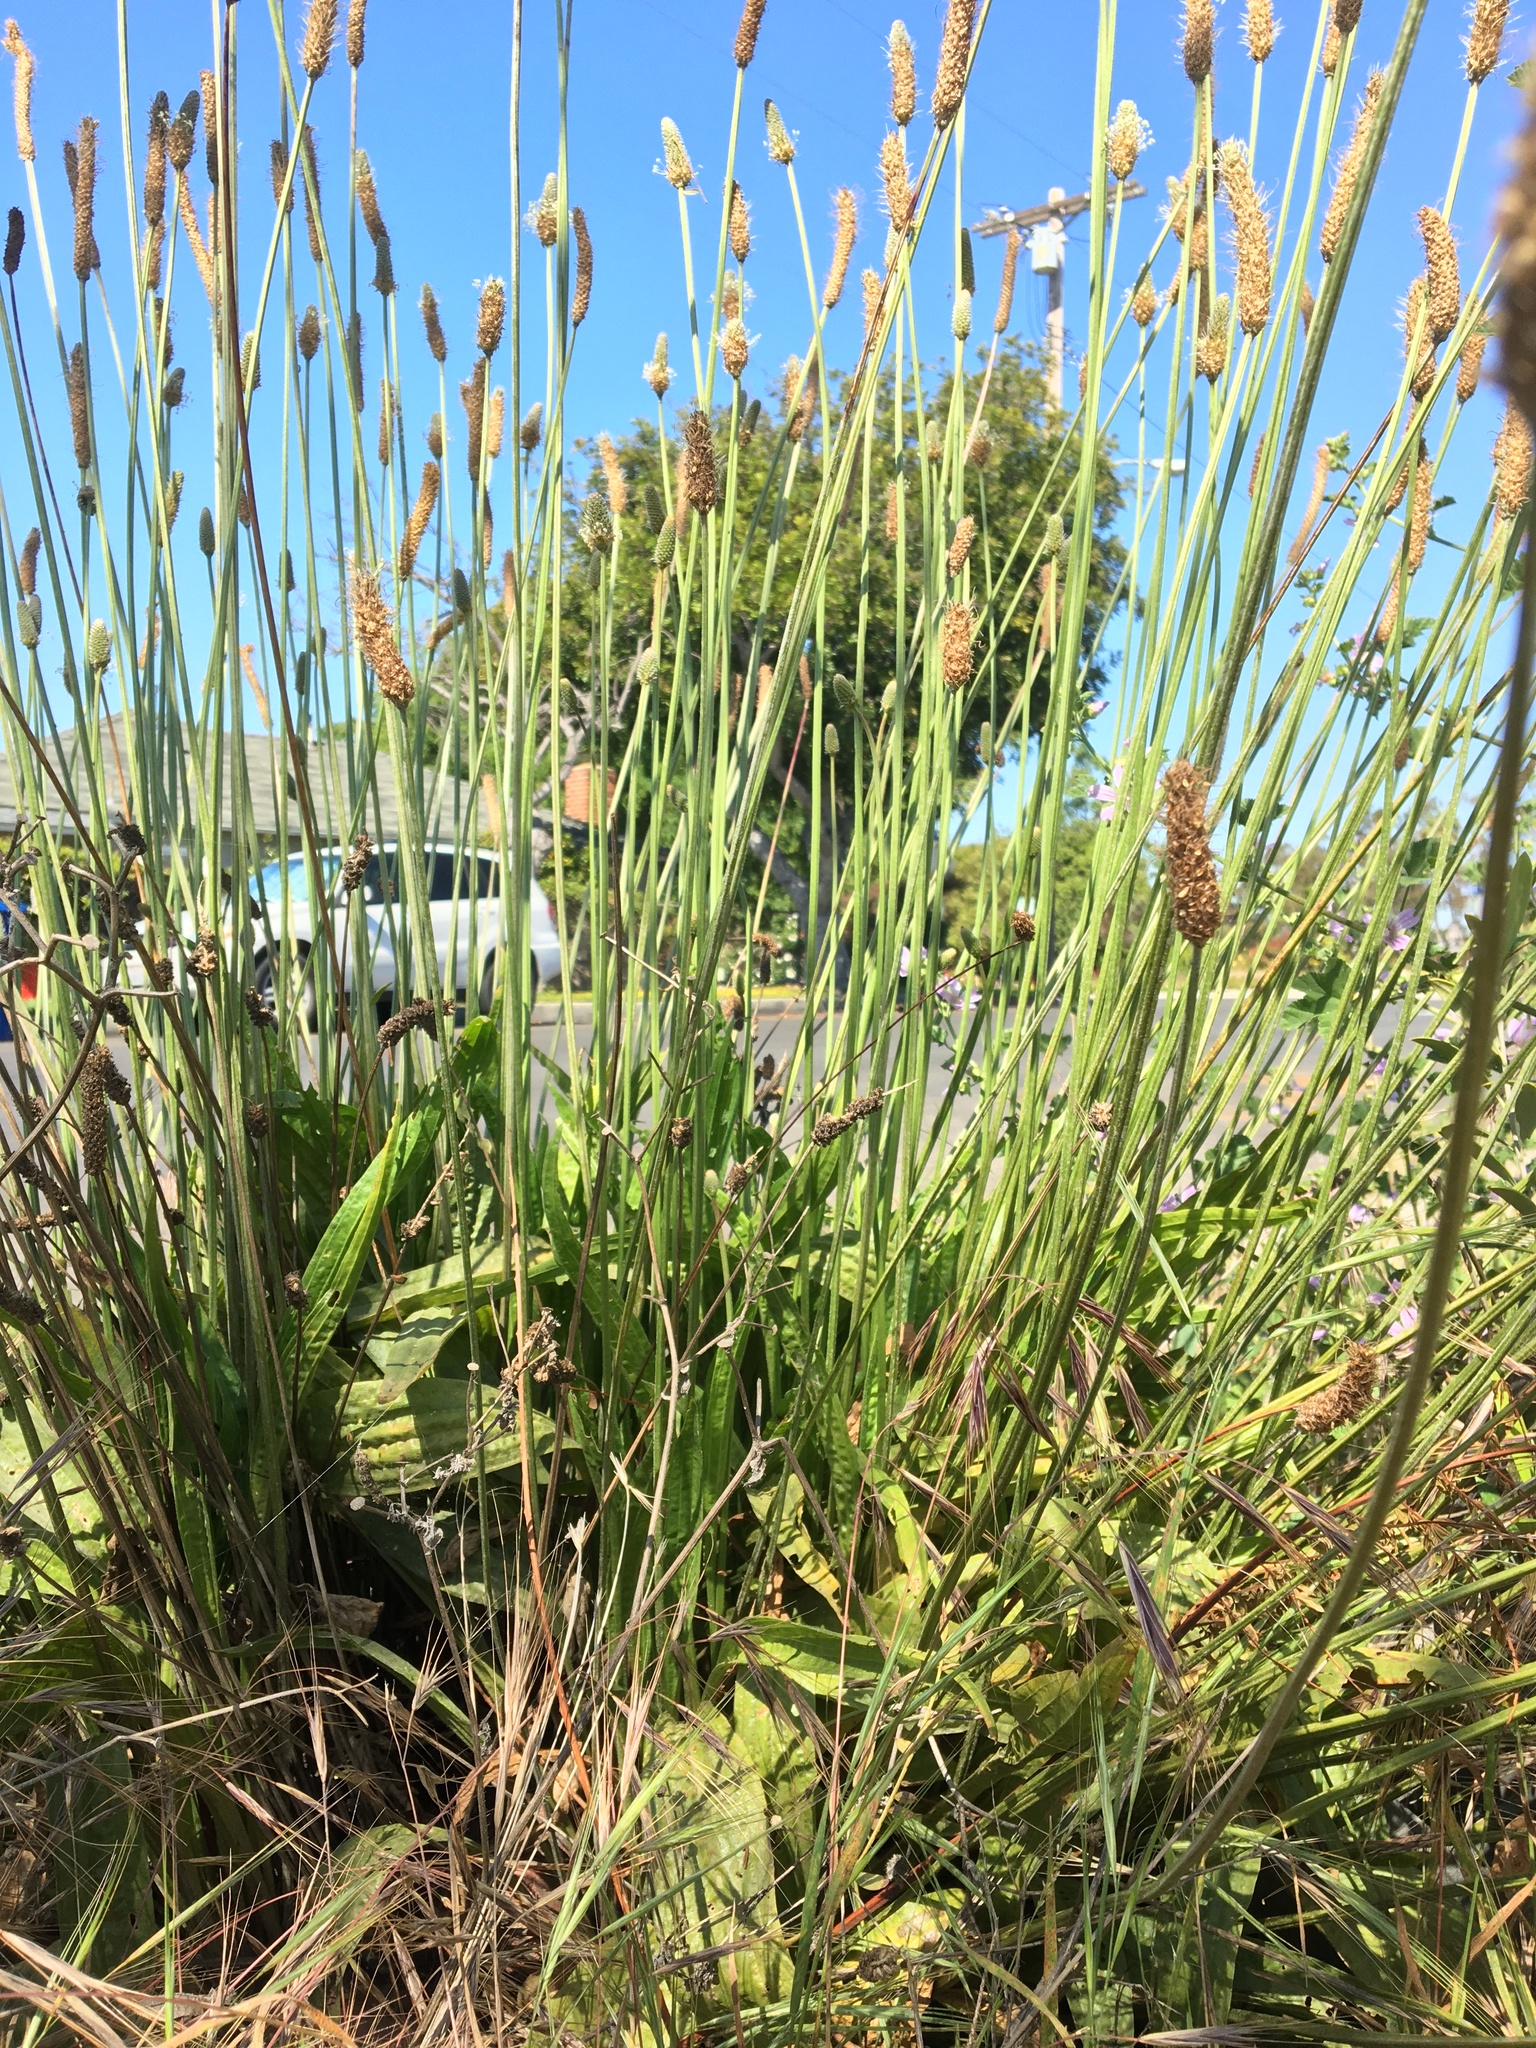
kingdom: Plantae
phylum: Tracheophyta
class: Magnoliopsida
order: Lamiales
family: Plantaginaceae
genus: Plantago
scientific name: Plantago lanceolata
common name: Ribwort plantain
